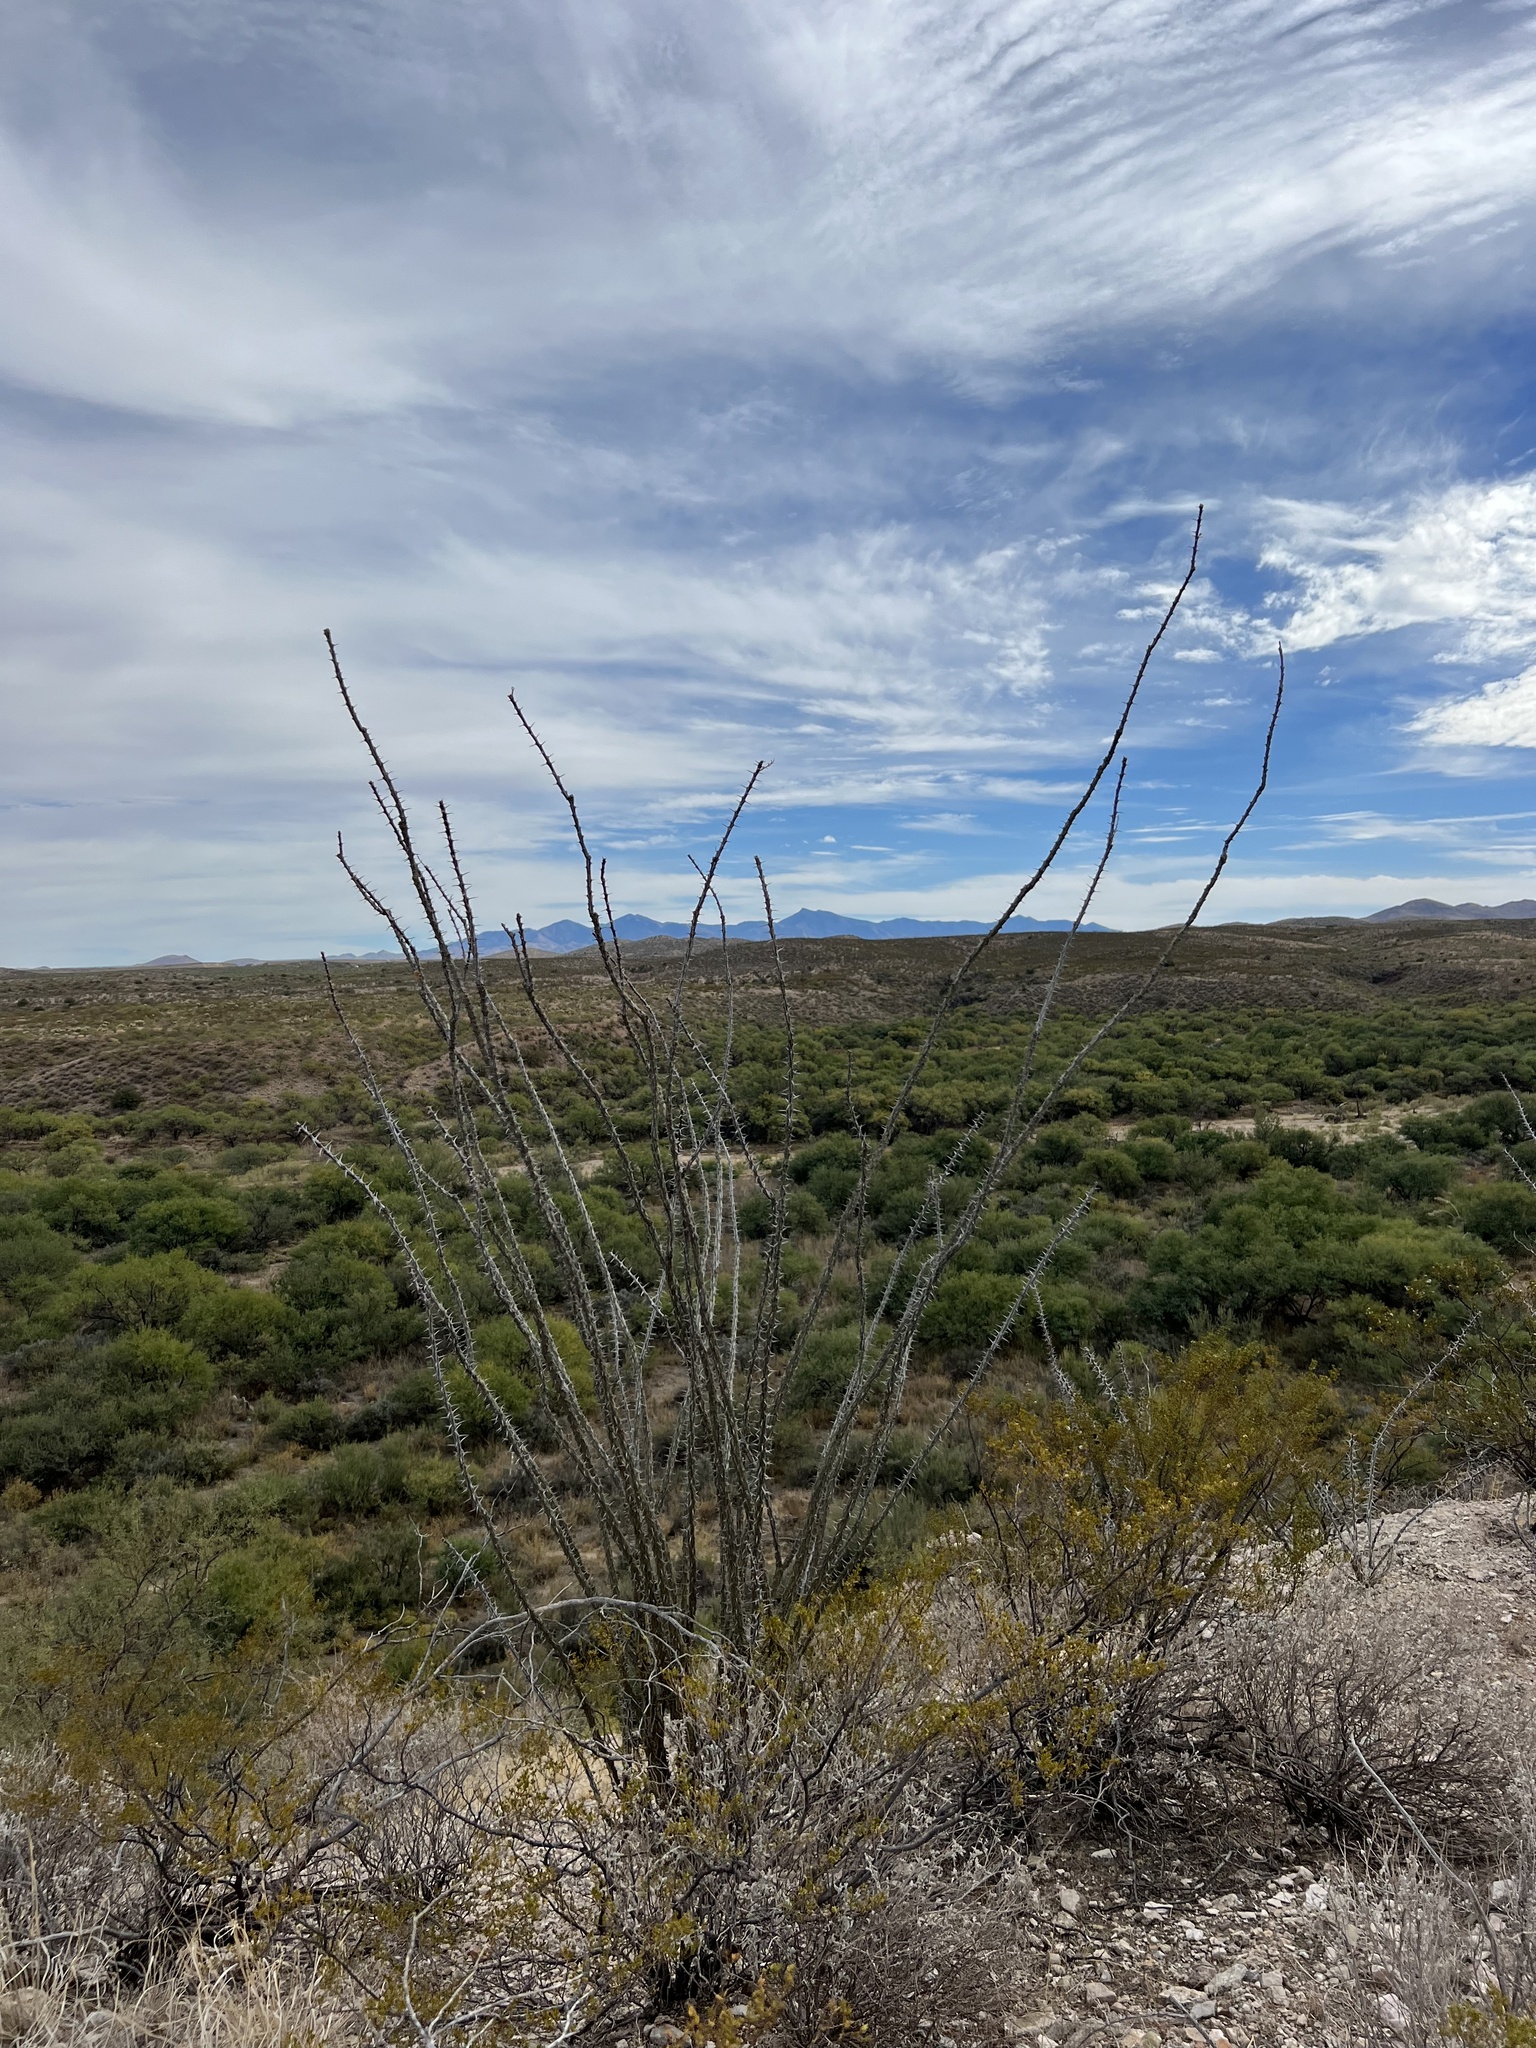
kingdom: Plantae
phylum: Tracheophyta
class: Magnoliopsida
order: Ericales
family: Fouquieriaceae
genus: Fouquieria
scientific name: Fouquieria splendens
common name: Vine-cactus
